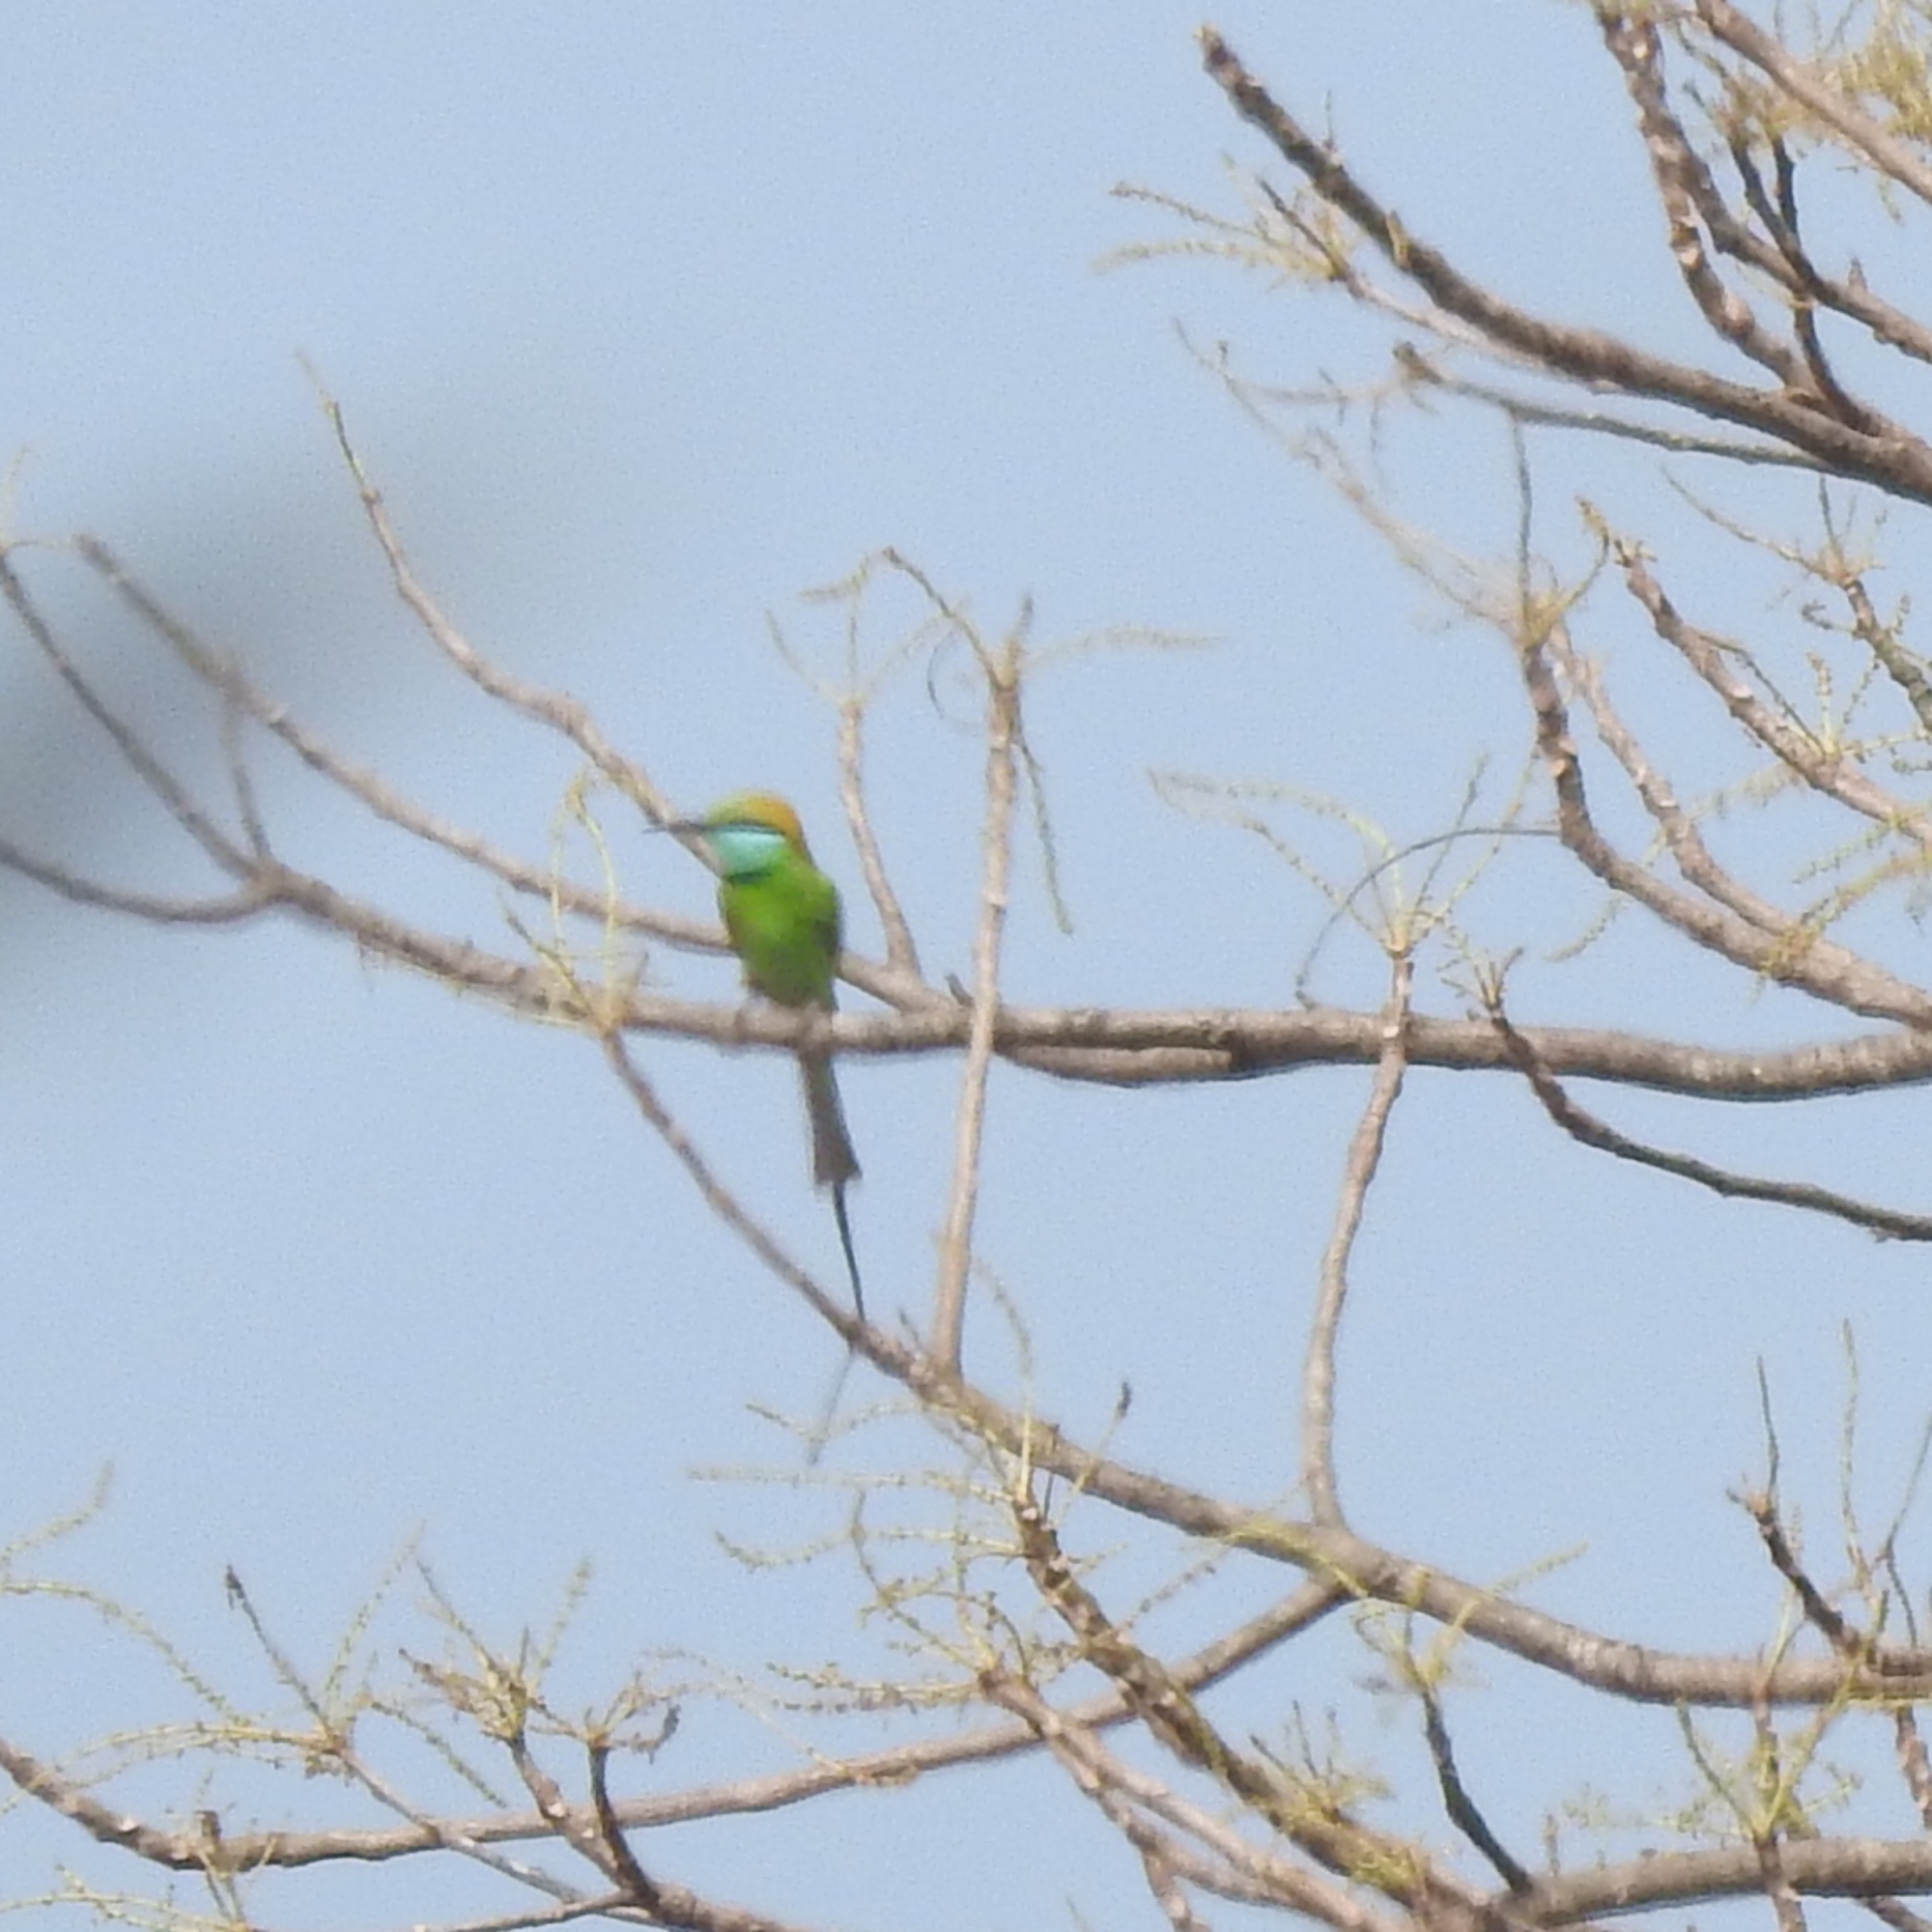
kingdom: Animalia
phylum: Chordata
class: Aves
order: Coraciiformes
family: Meropidae
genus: Merops
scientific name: Merops orientalis
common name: Green bee-eater
